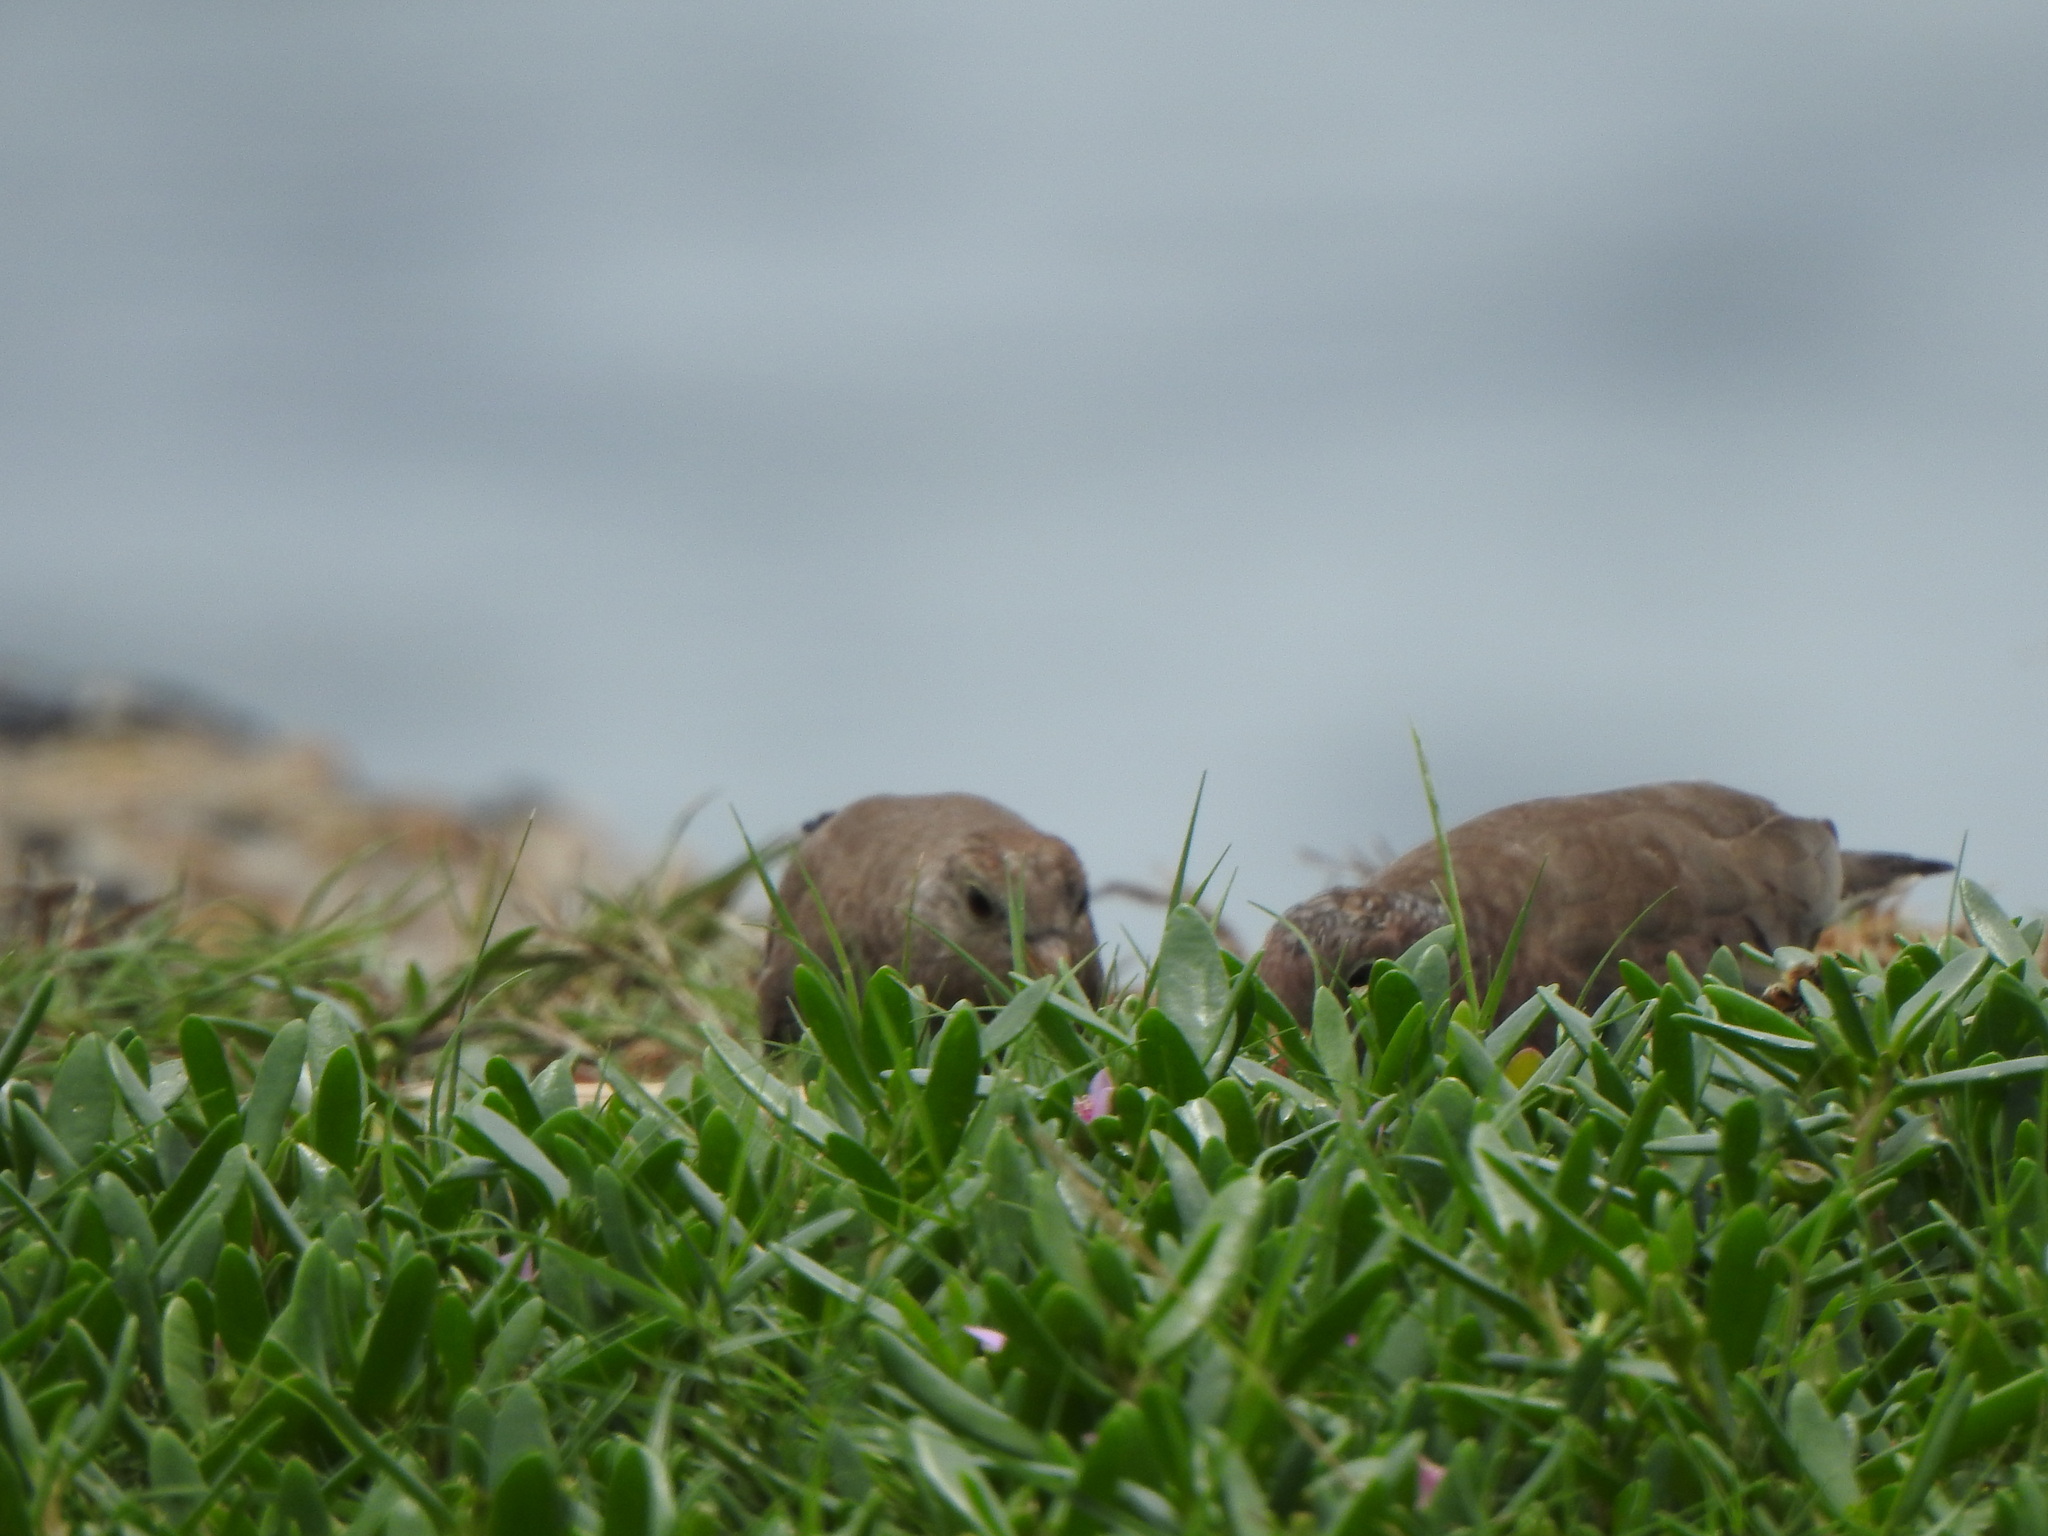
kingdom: Animalia
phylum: Chordata
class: Aves
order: Columbiformes
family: Columbidae
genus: Columbina
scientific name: Columbina passerina
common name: Common ground-dove
